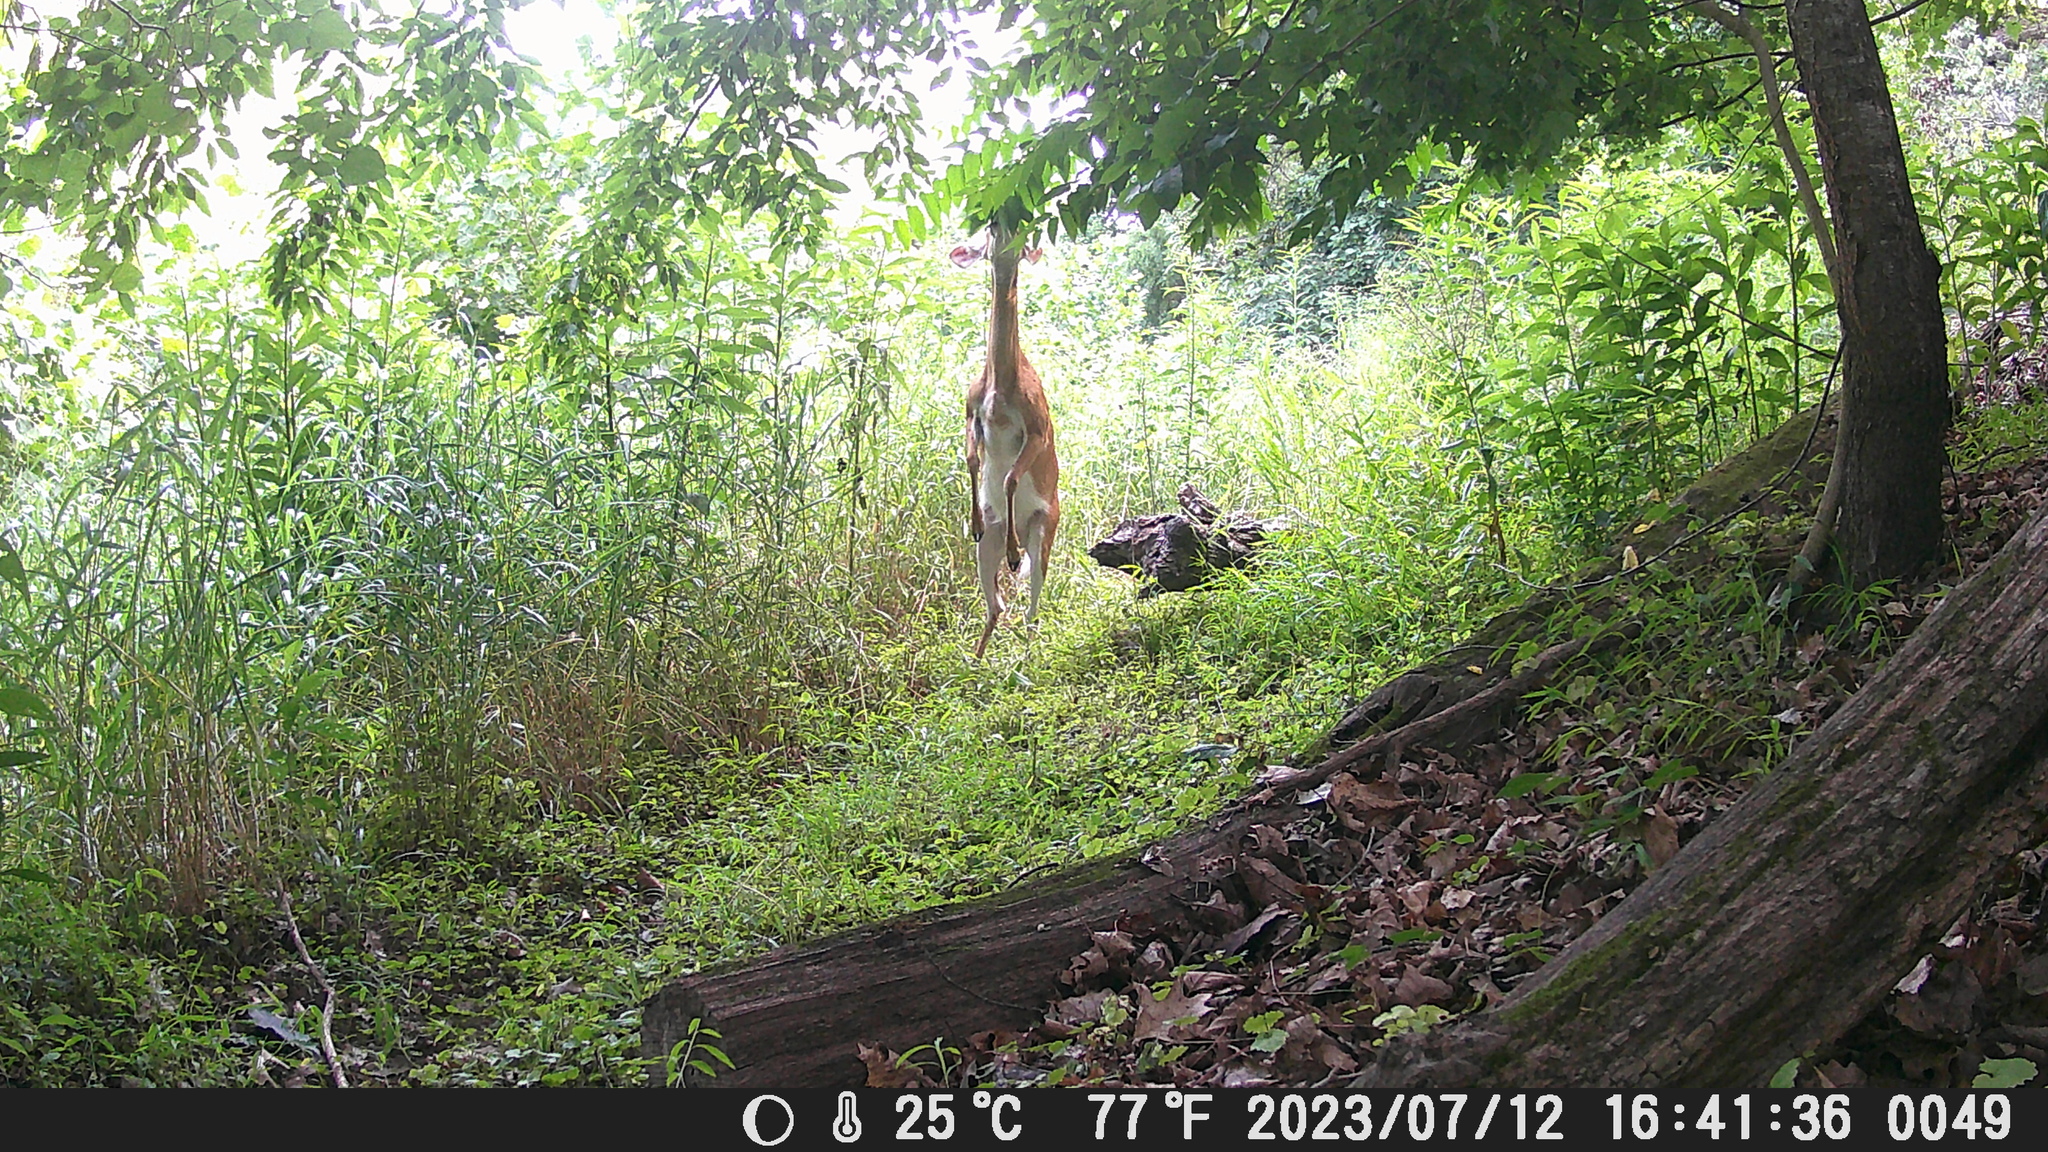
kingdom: Animalia
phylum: Chordata
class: Mammalia
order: Artiodactyla
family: Cervidae
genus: Odocoileus
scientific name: Odocoileus virginianus
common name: White-tailed deer
